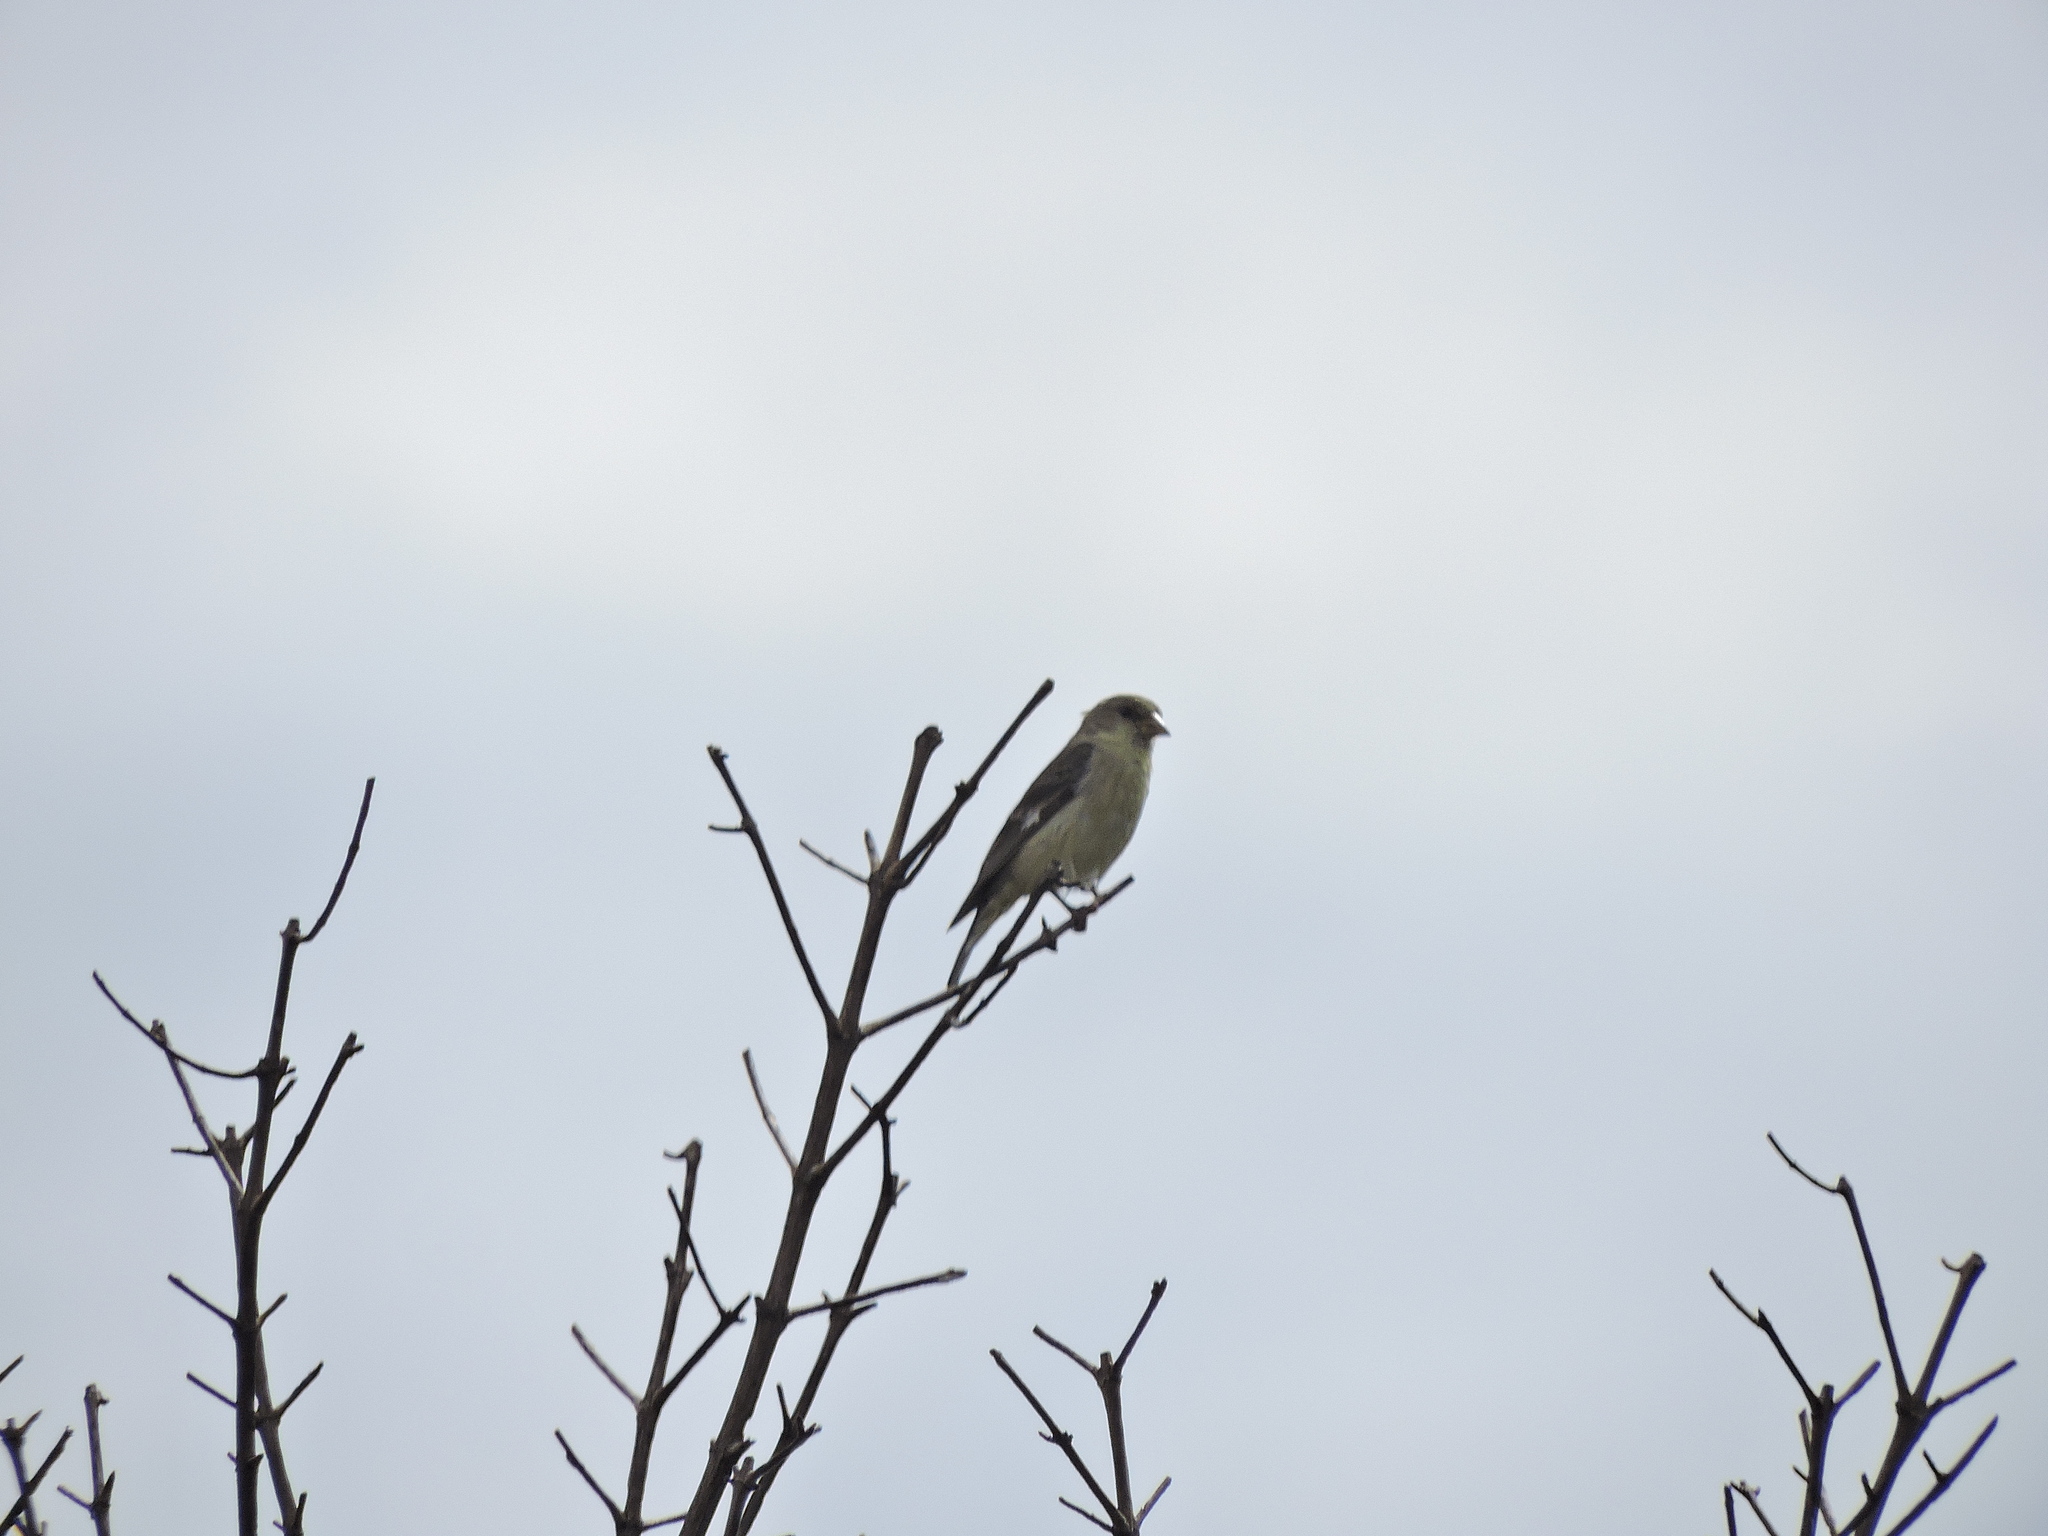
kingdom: Animalia
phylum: Chordata
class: Aves
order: Passeriformes
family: Fringillidae
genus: Spinus
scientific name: Spinus psaltria
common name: Lesser goldfinch
